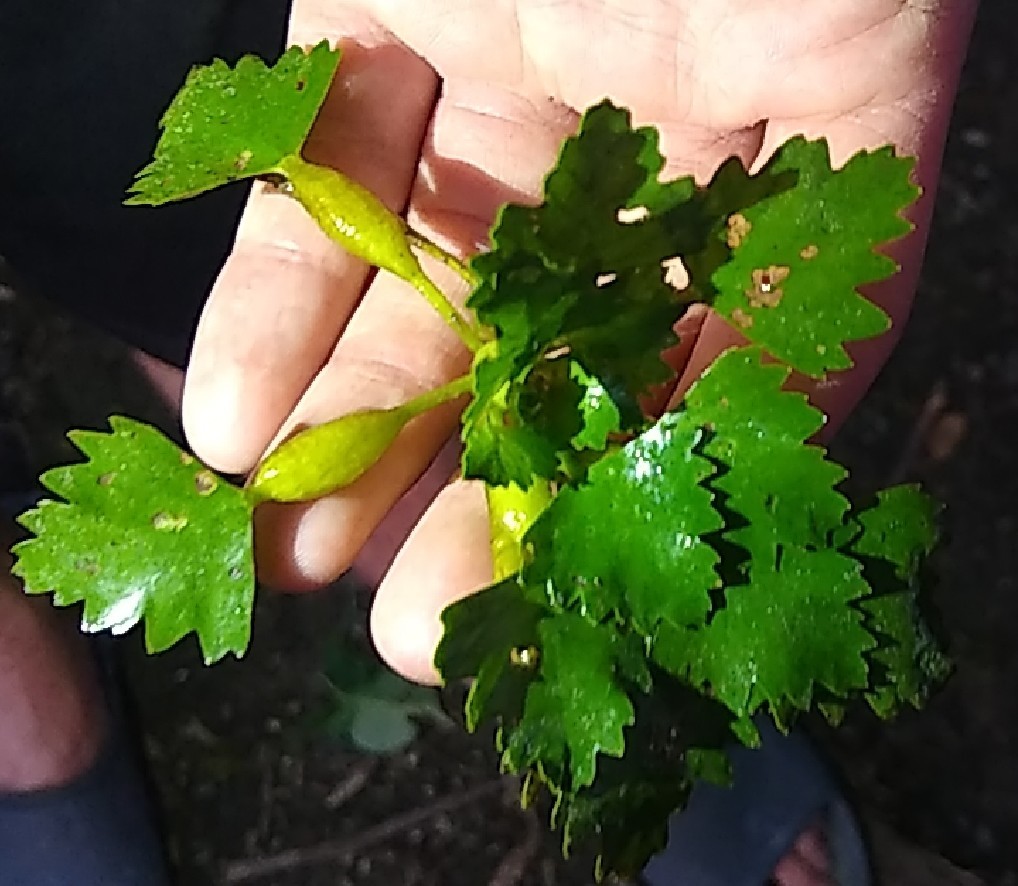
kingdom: Plantae
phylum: Tracheophyta
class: Magnoliopsida
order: Myrtales
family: Lythraceae
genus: Trapa
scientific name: Trapa natans
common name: Water chestnut
